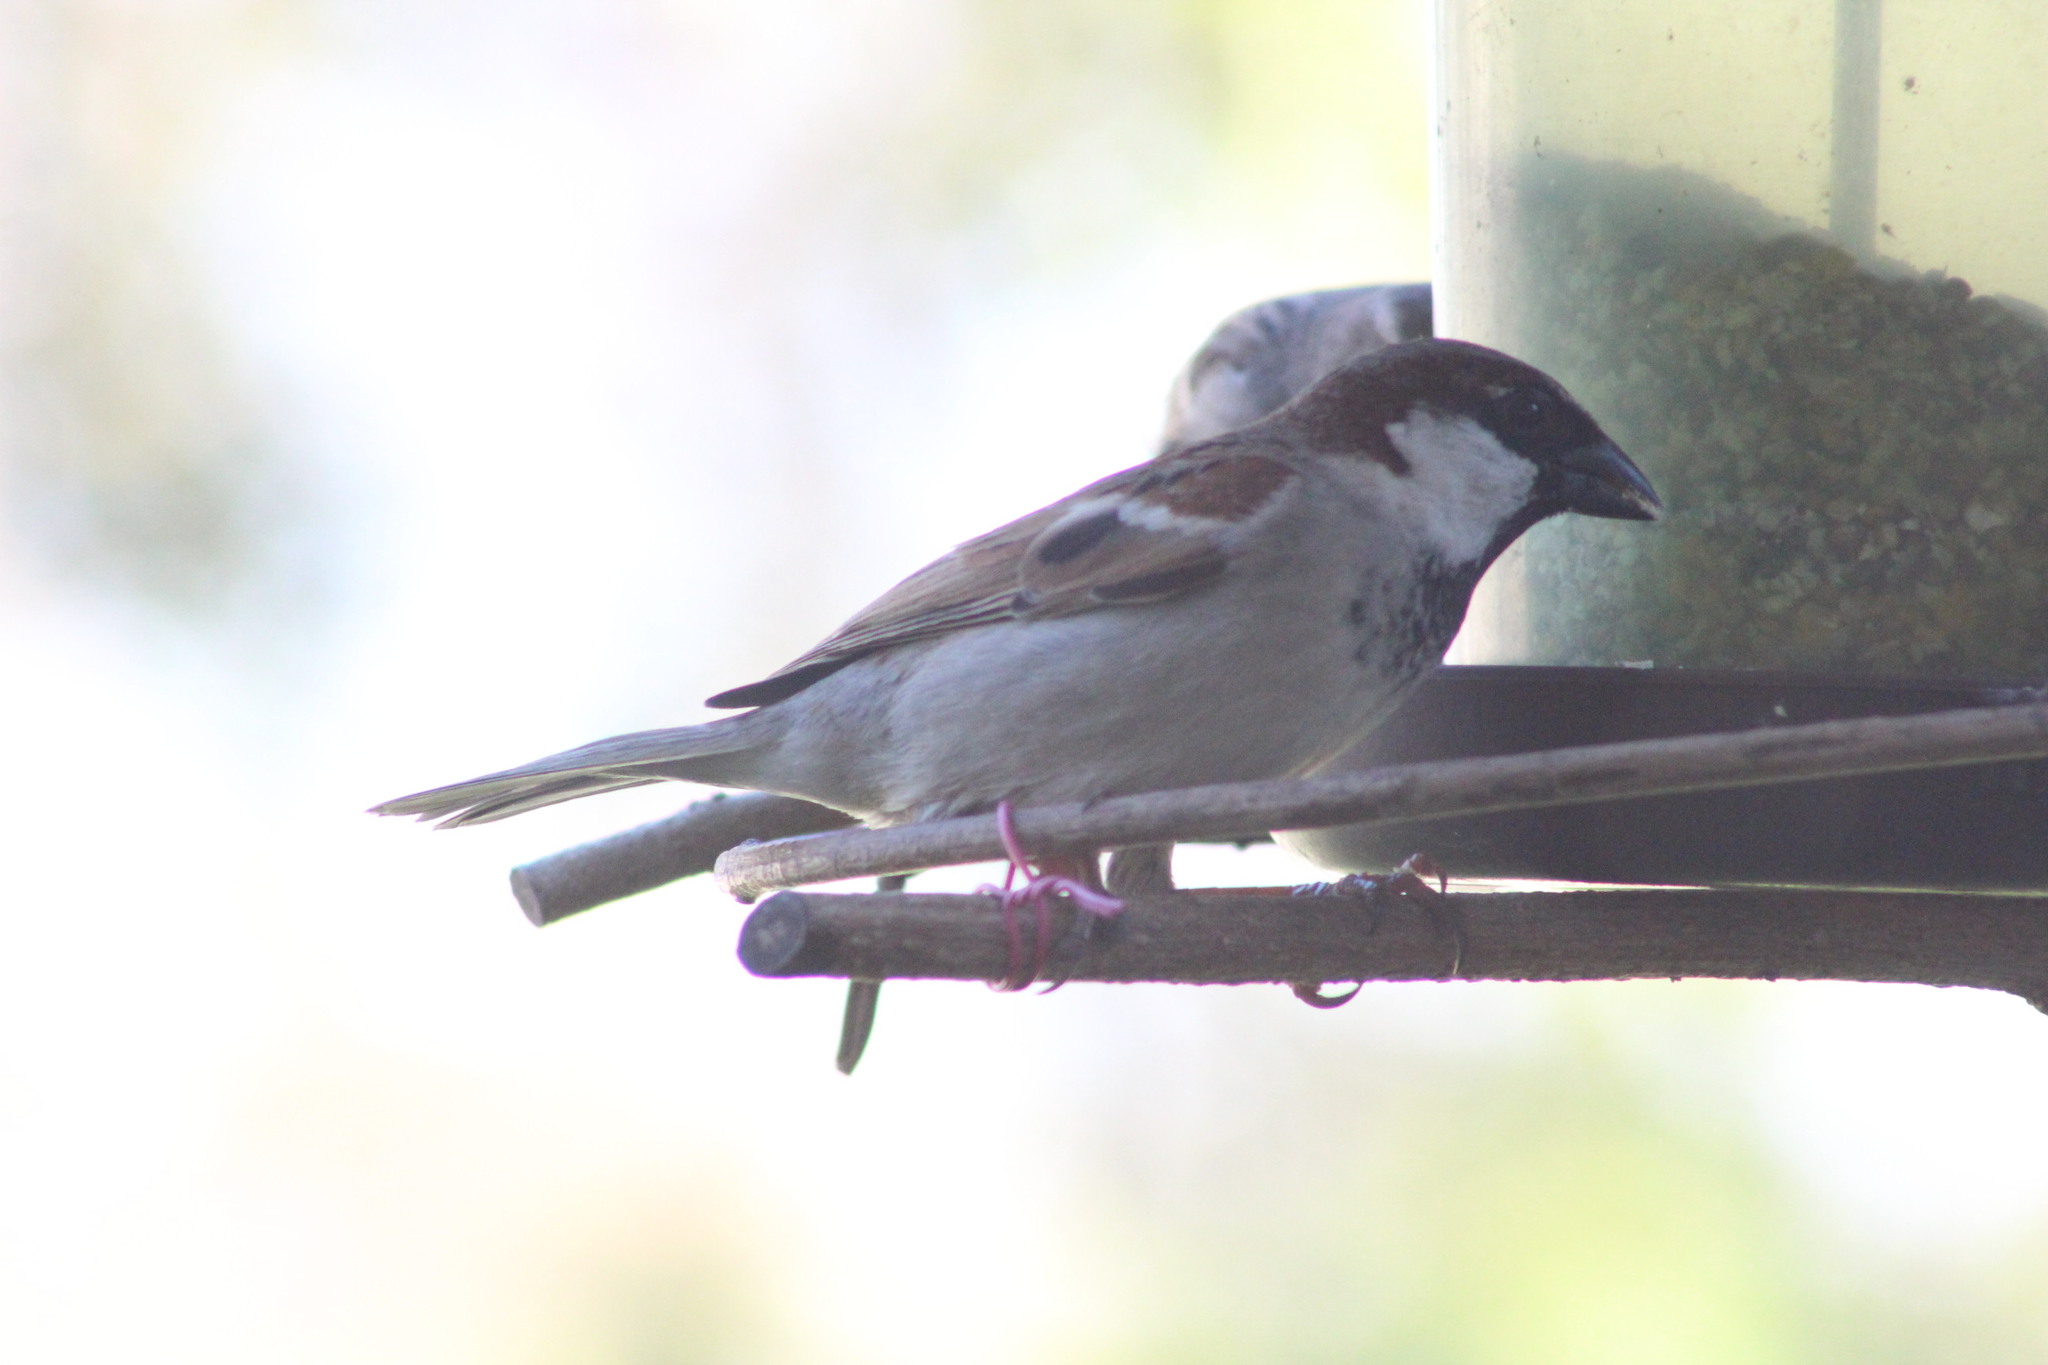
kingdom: Animalia
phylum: Chordata
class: Aves
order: Passeriformes
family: Passeridae
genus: Passer
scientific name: Passer domesticus
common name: House sparrow
